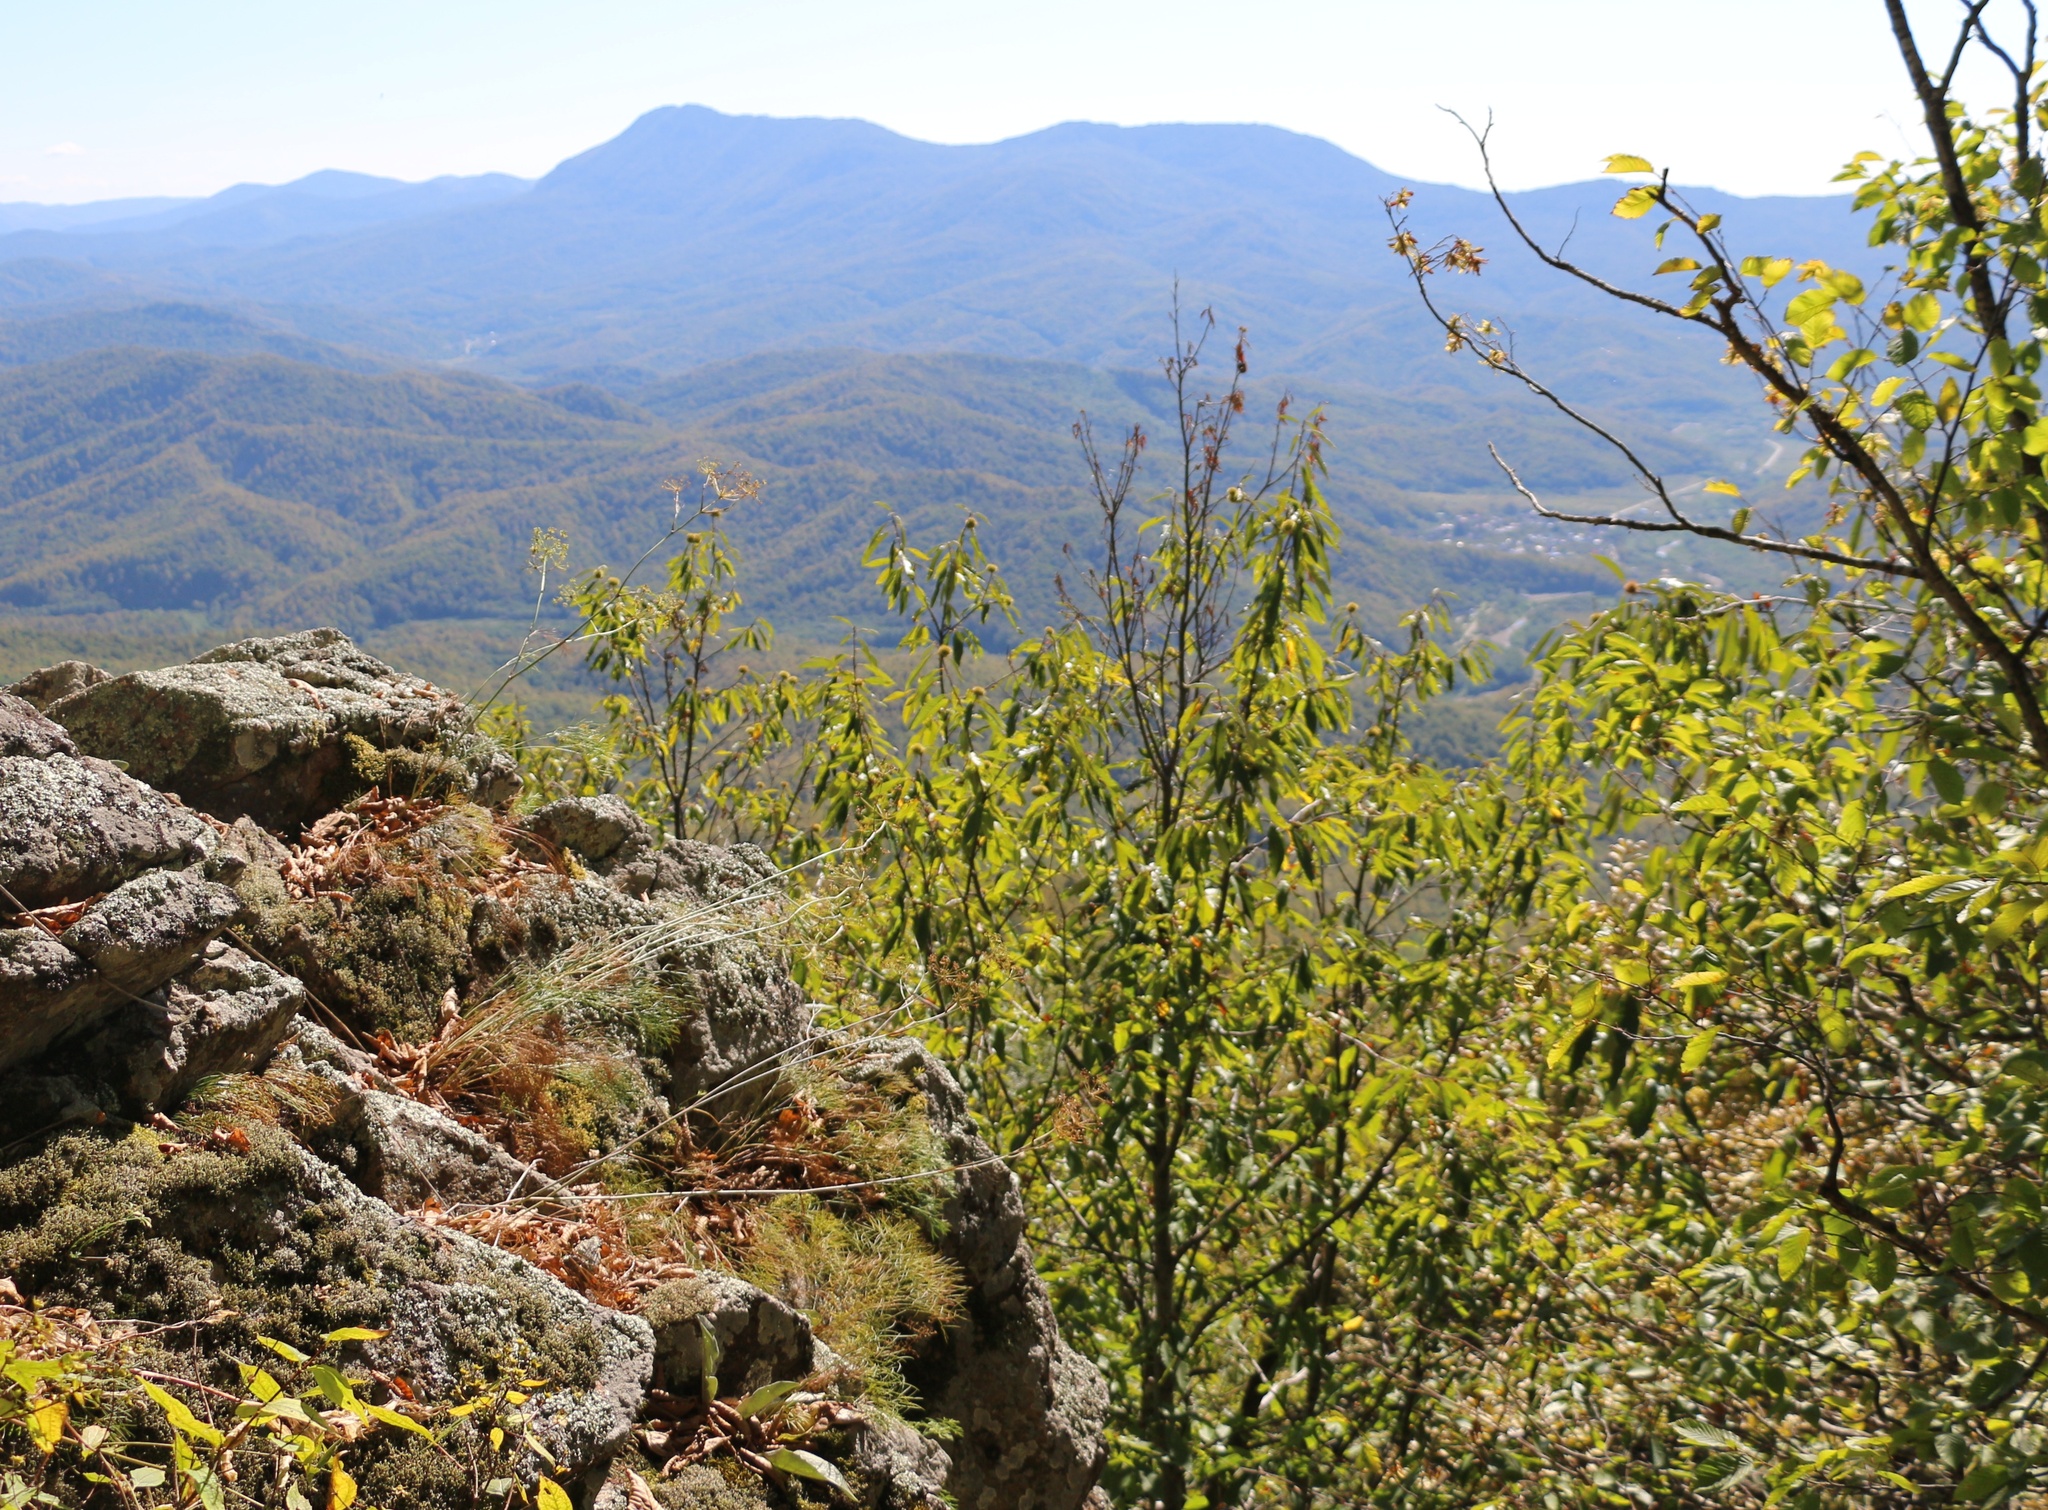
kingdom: Plantae
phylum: Tracheophyta
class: Magnoliopsida
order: Fagales
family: Fagaceae
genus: Castanea
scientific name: Castanea sativa
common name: Sweet chestnut
